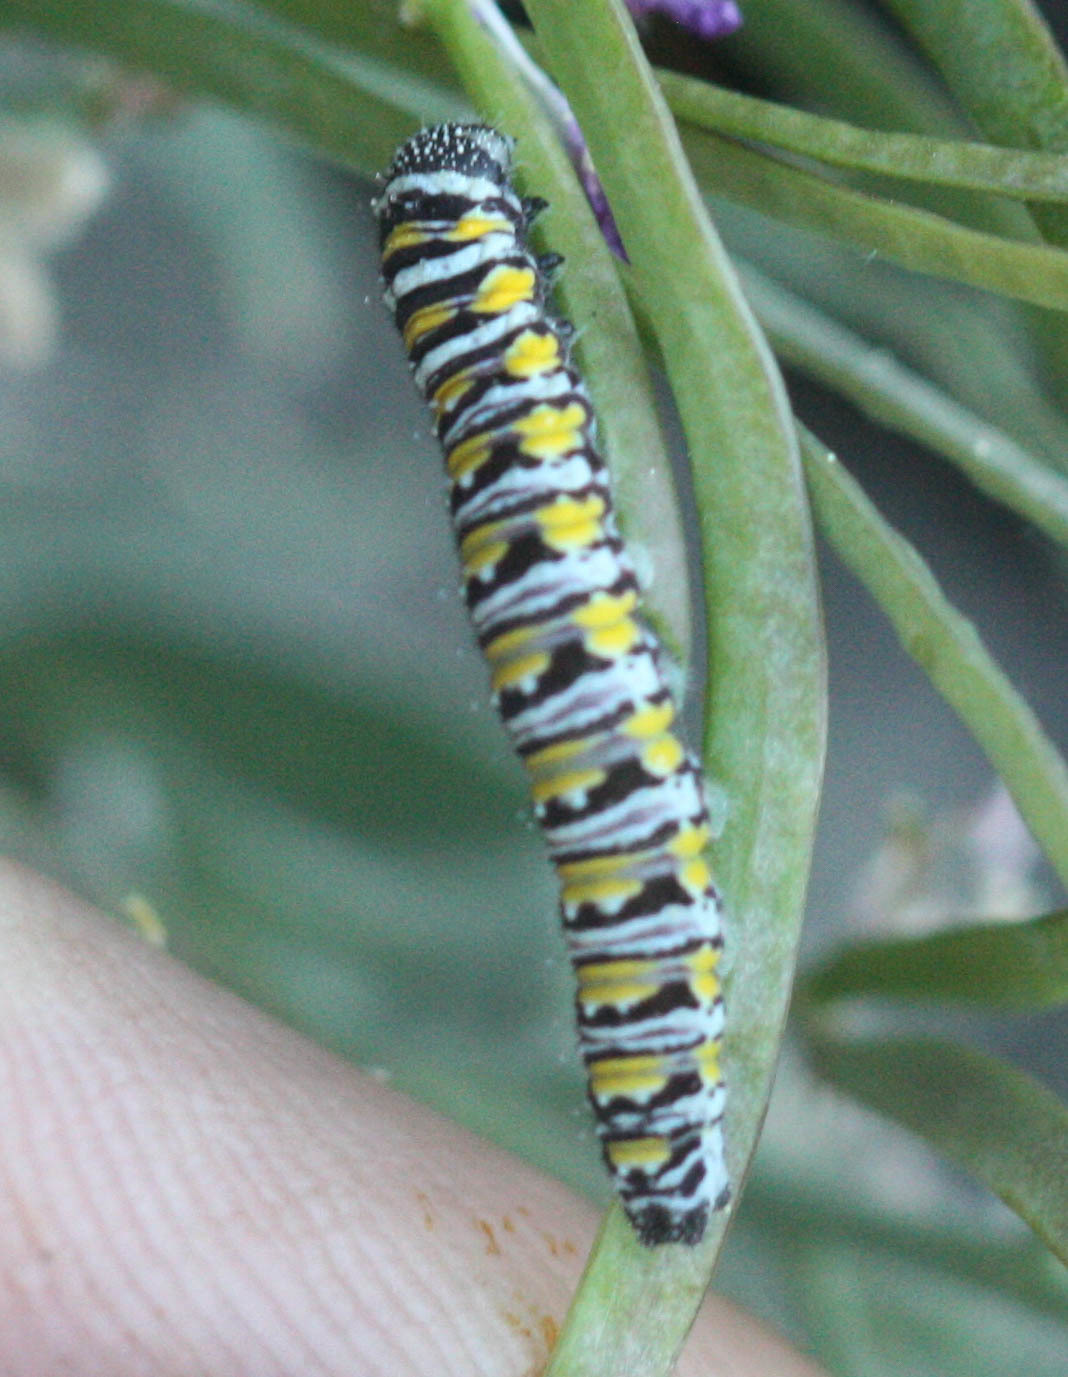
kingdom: Animalia
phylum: Arthropoda
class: Insecta
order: Lepidoptera
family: Pieridae
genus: Pontia
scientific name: Pontia sisymbrii
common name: California white
